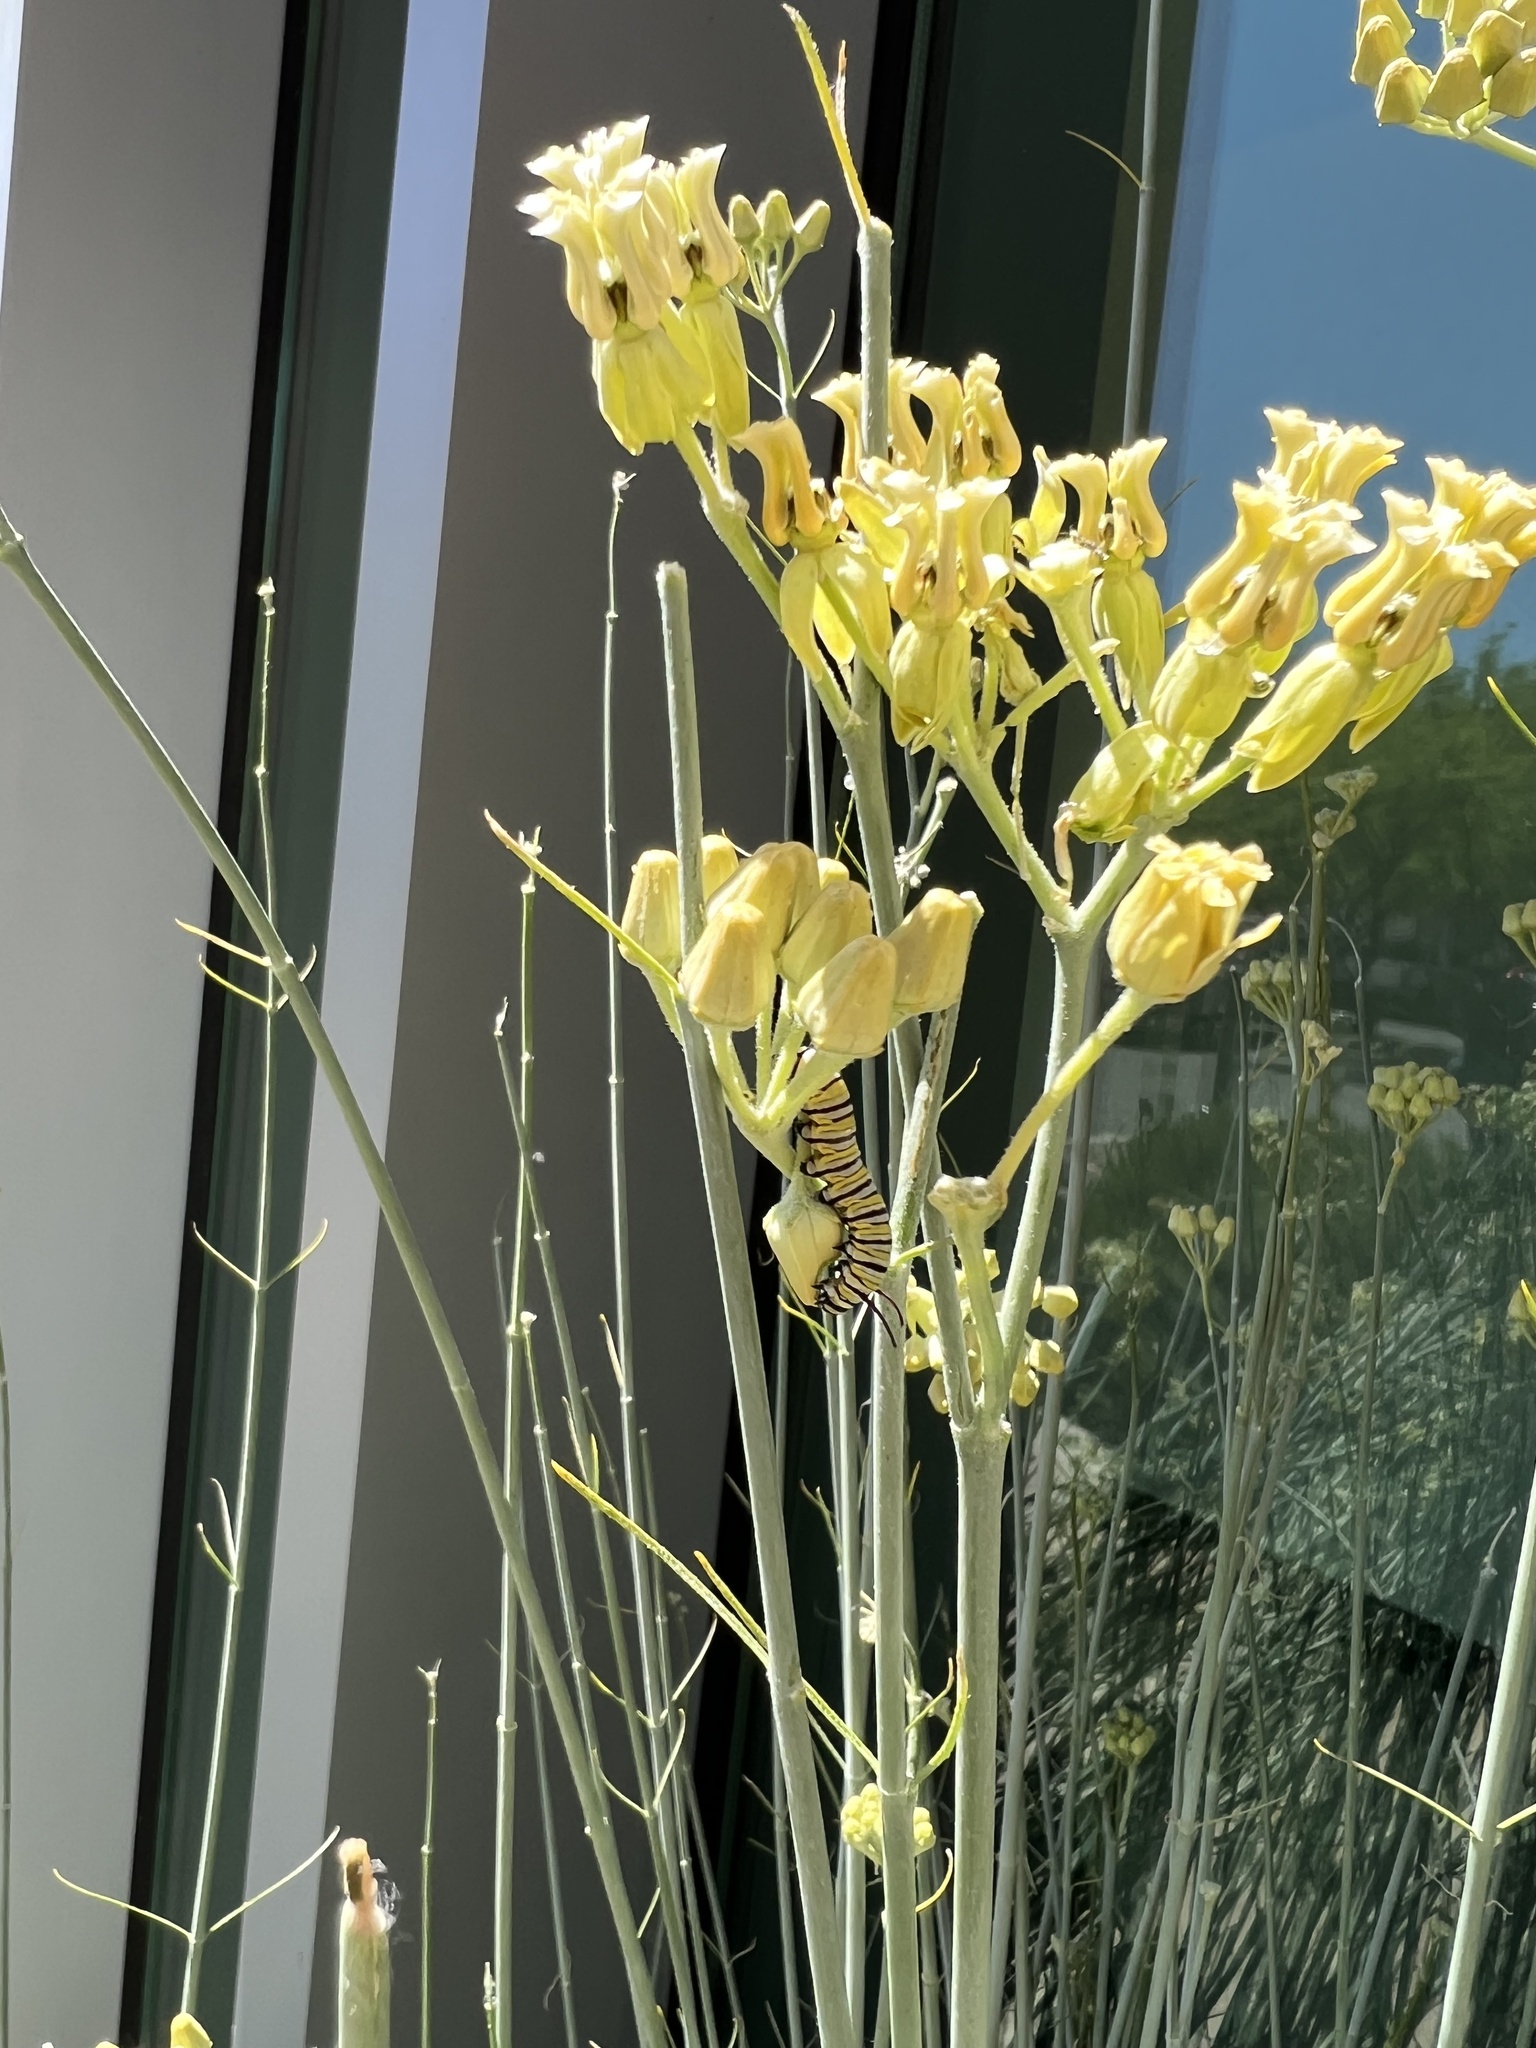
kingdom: Animalia
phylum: Arthropoda
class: Insecta
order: Lepidoptera
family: Nymphalidae
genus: Danaus
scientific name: Danaus plexippus
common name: Monarch
